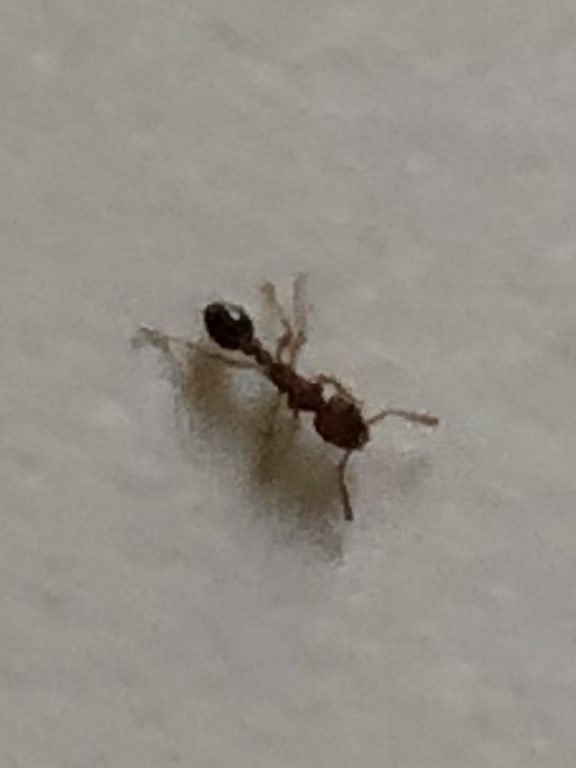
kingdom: Animalia
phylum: Arthropoda
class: Insecta
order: Hymenoptera
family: Formicidae
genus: Tetramorium
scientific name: Tetramorium bicarinatum
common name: Guinea ant
